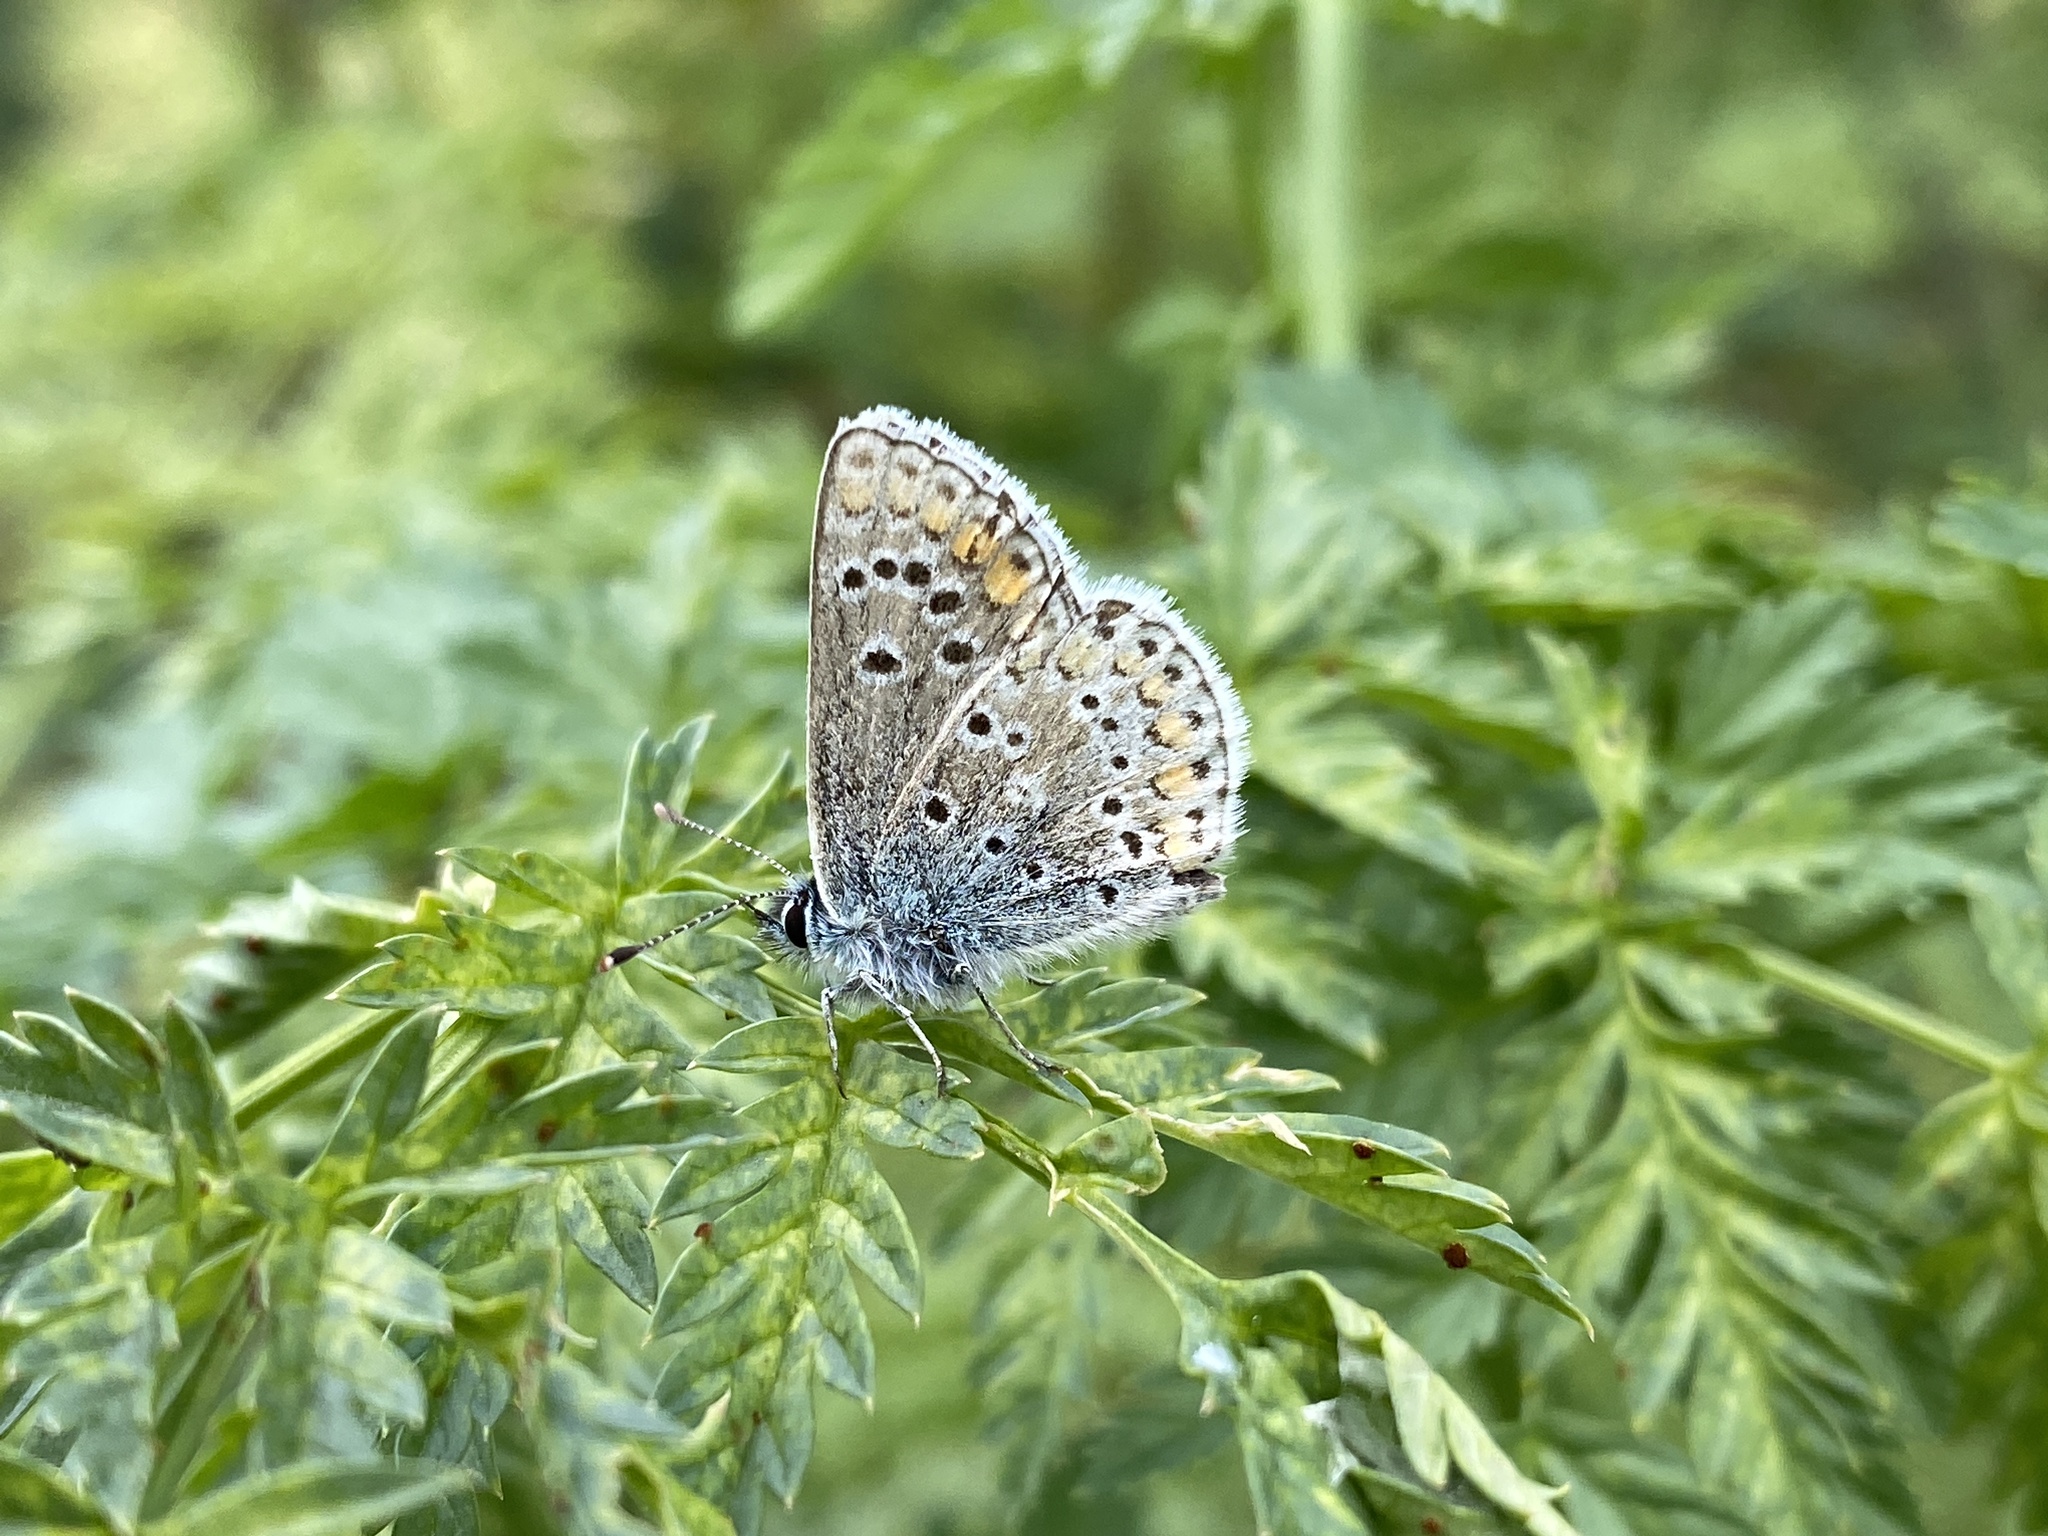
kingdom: Animalia
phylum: Arthropoda
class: Insecta
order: Lepidoptera
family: Lycaenidae
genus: Aricia
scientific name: Aricia agestis
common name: Brown argus
